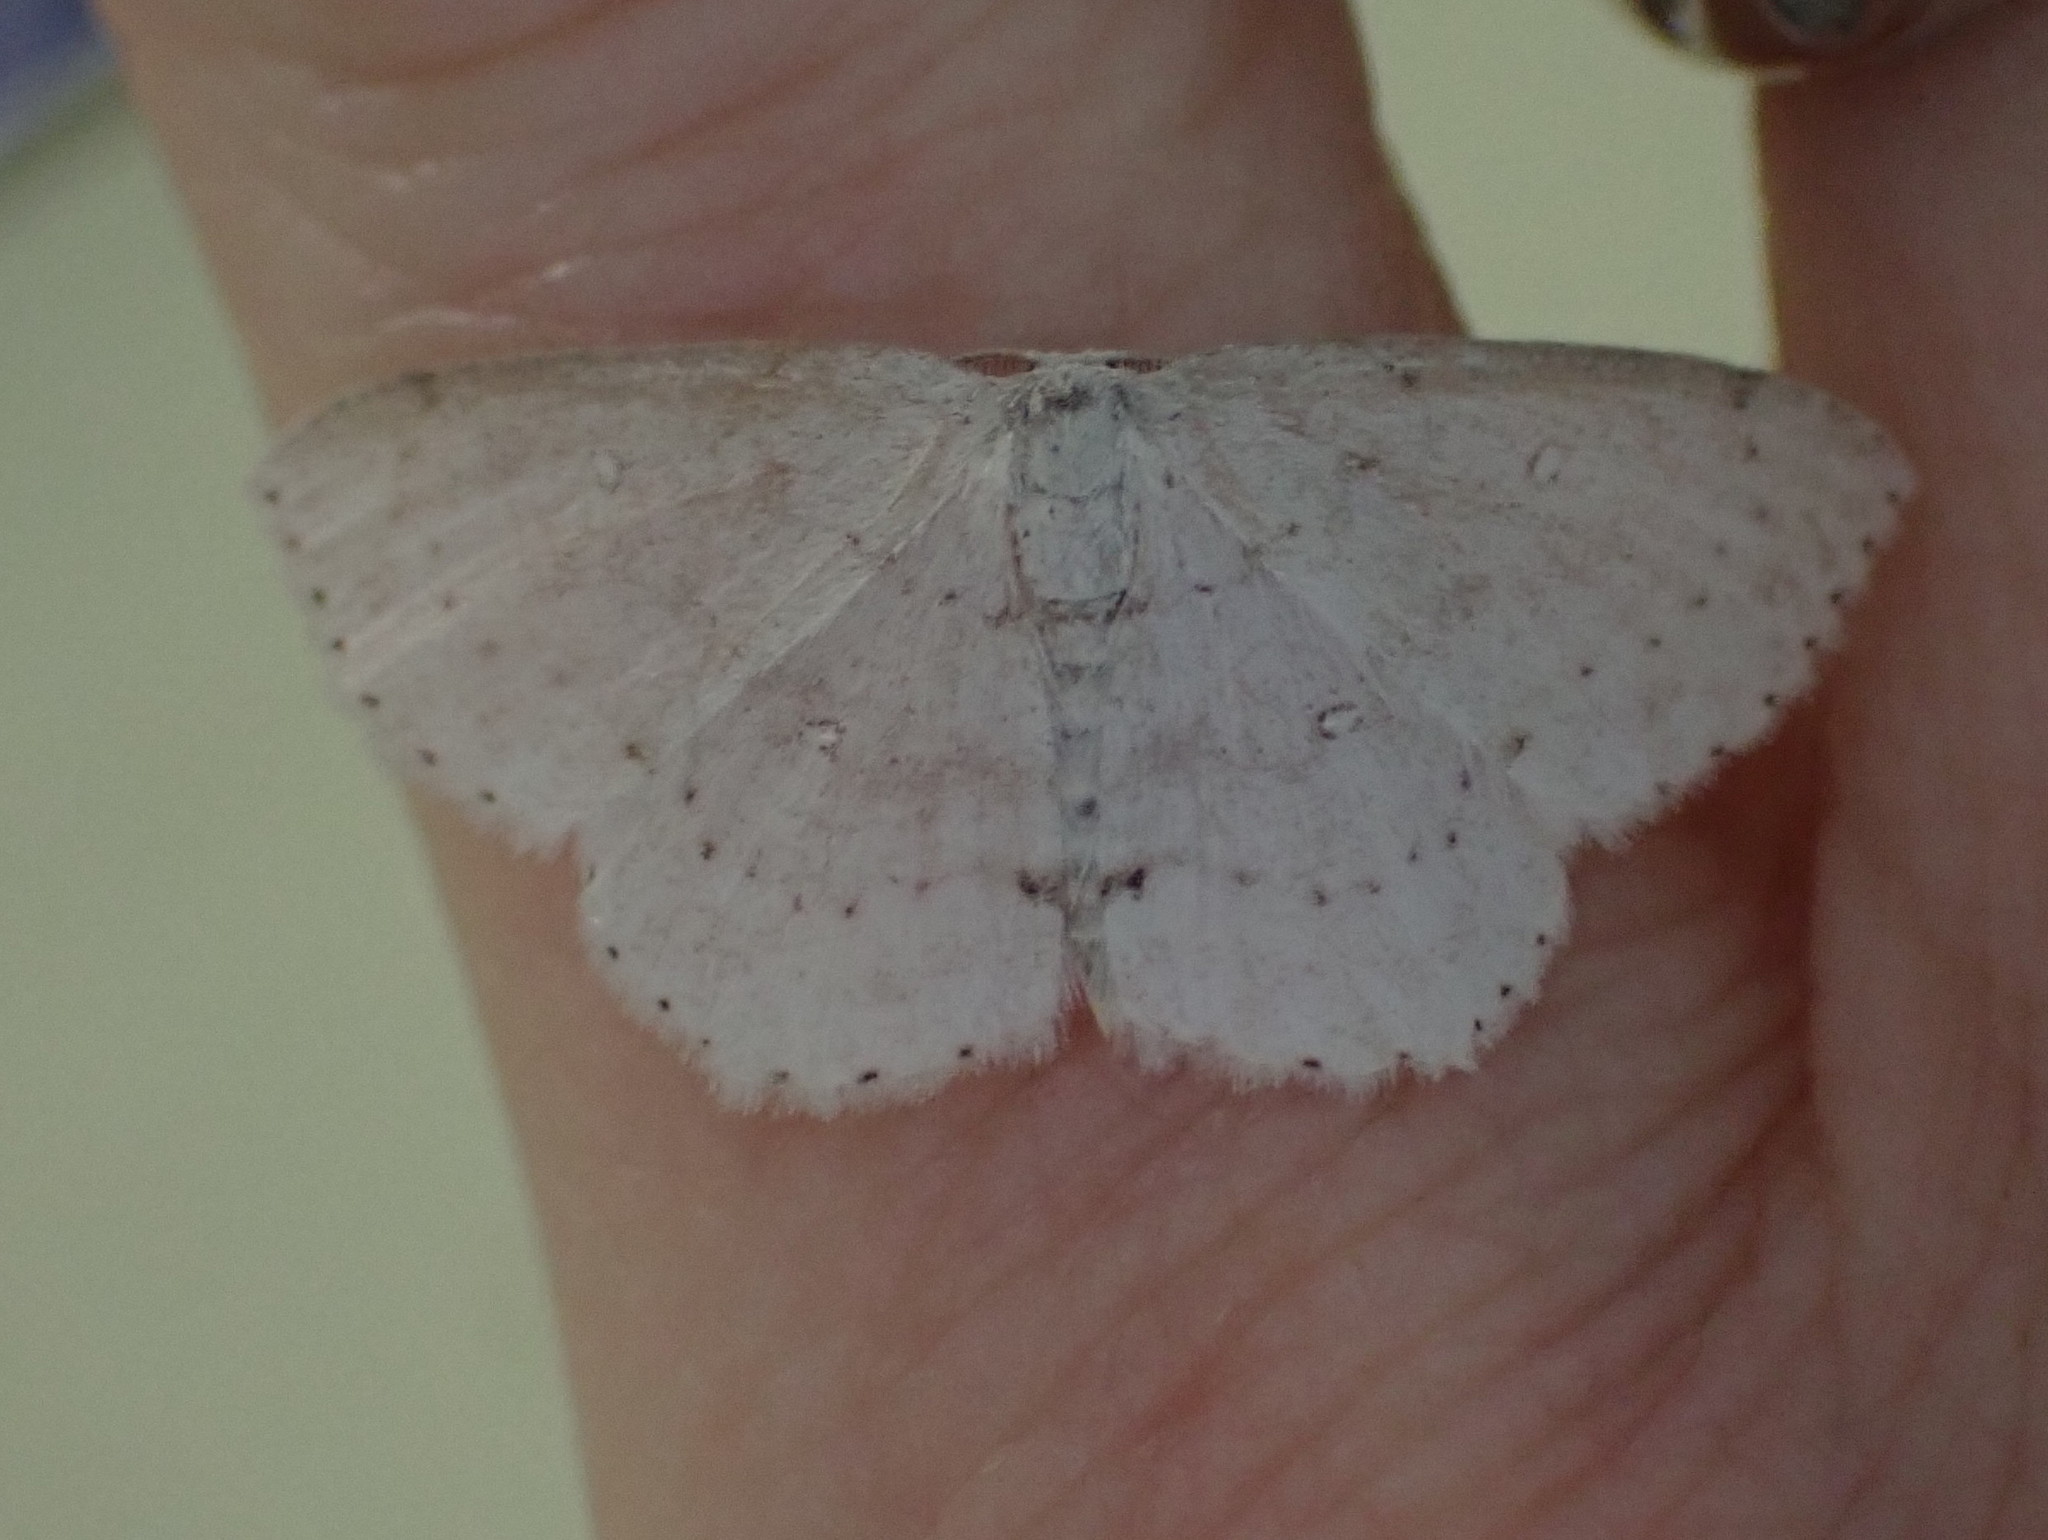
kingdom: Animalia
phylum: Arthropoda
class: Insecta
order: Lepidoptera
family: Geometridae
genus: Cyclophora
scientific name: Cyclophora pendulinaria
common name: Sweet fern geometer
